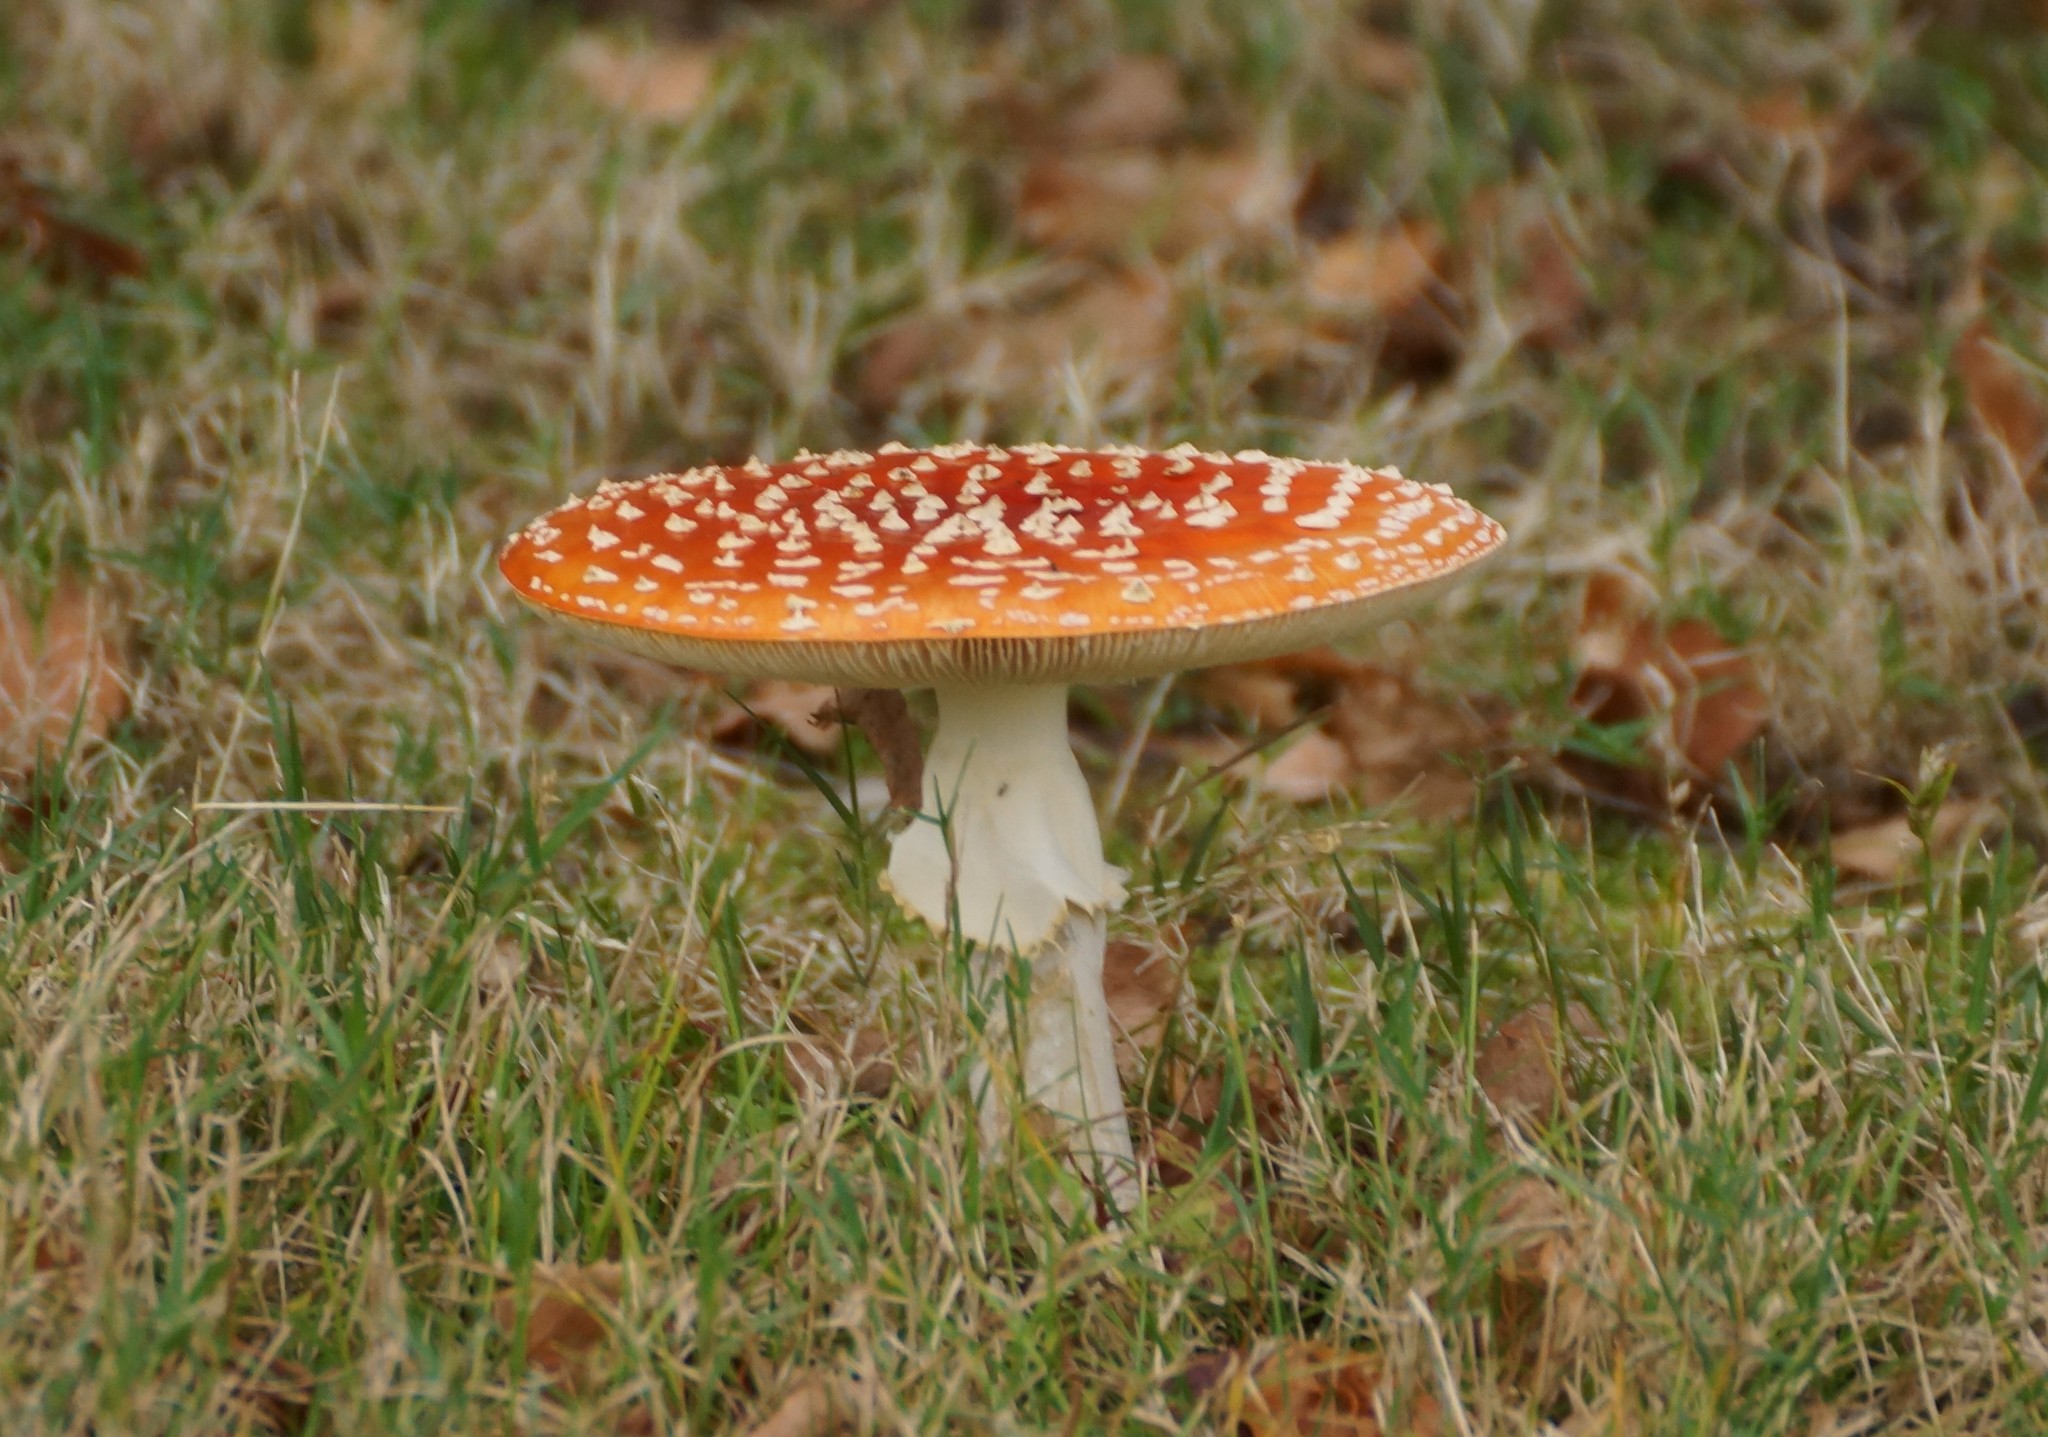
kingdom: Fungi
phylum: Basidiomycota
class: Agaricomycetes
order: Agaricales
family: Amanitaceae
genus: Amanita
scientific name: Amanita muscaria
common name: Fly agaric
